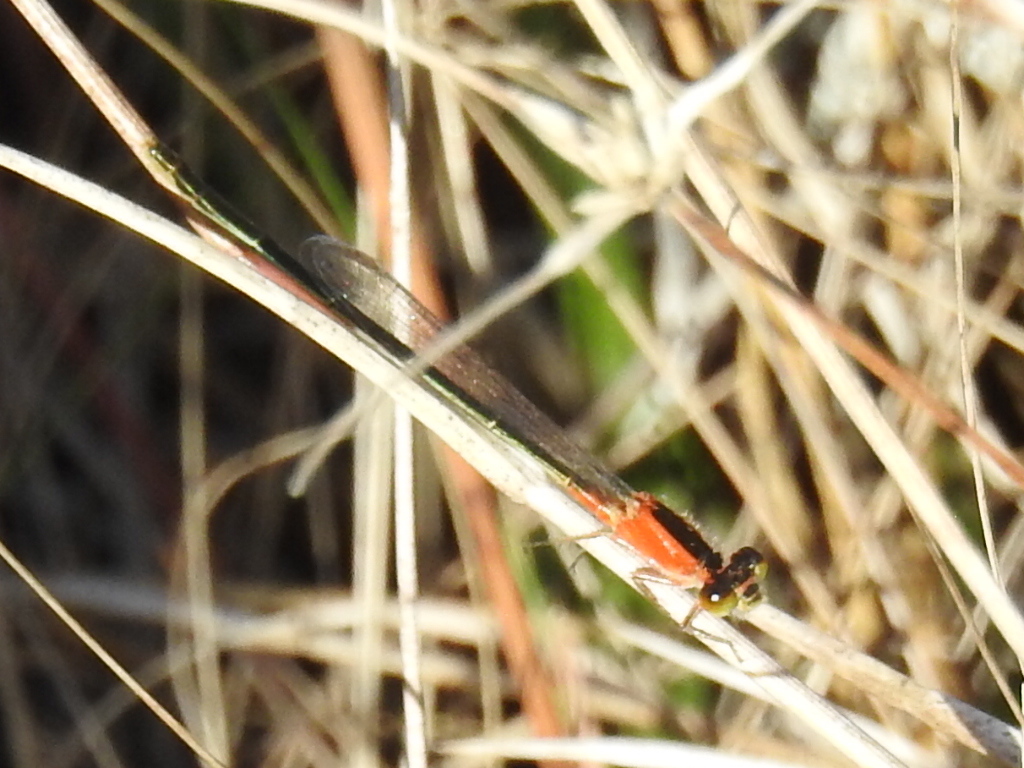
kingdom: Animalia
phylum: Arthropoda
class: Insecta
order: Odonata
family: Coenagrionidae
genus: Ischnura
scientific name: Ischnura ramburii
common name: Rambur's forktail
